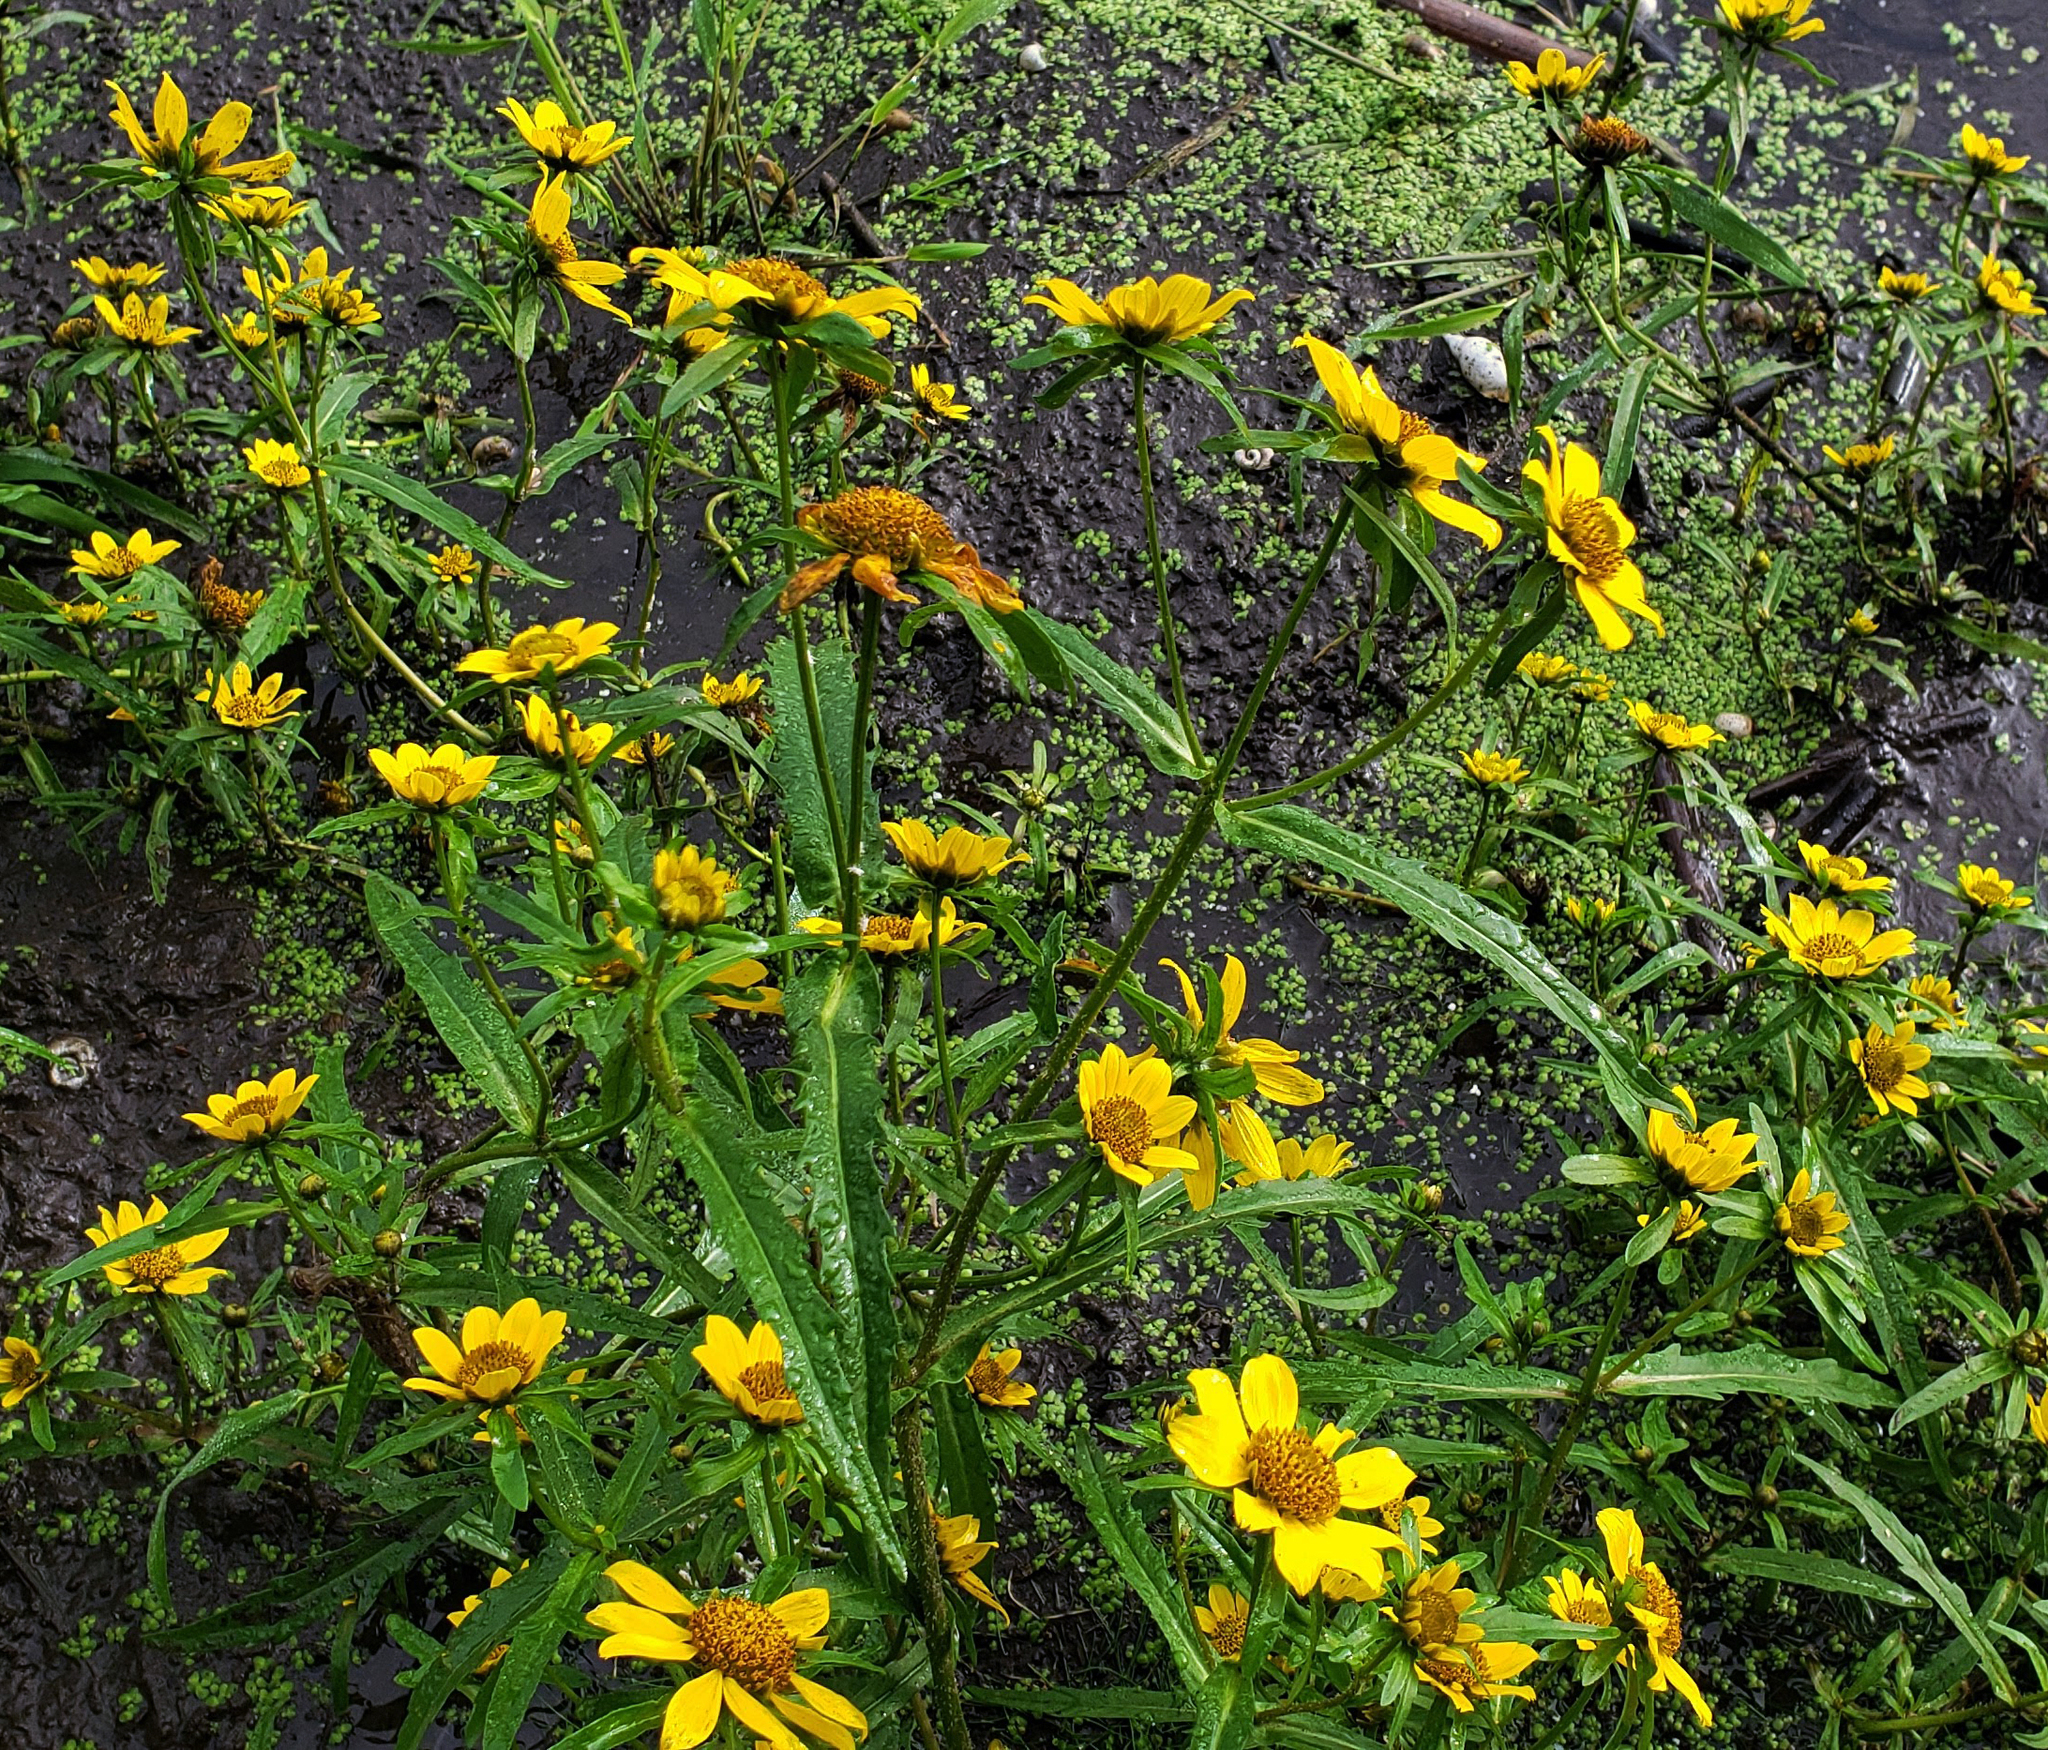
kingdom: Plantae
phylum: Tracheophyta
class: Magnoliopsida
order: Asterales
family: Asteraceae
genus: Bidens
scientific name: Bidens cernua
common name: Nodding bur-marigold
